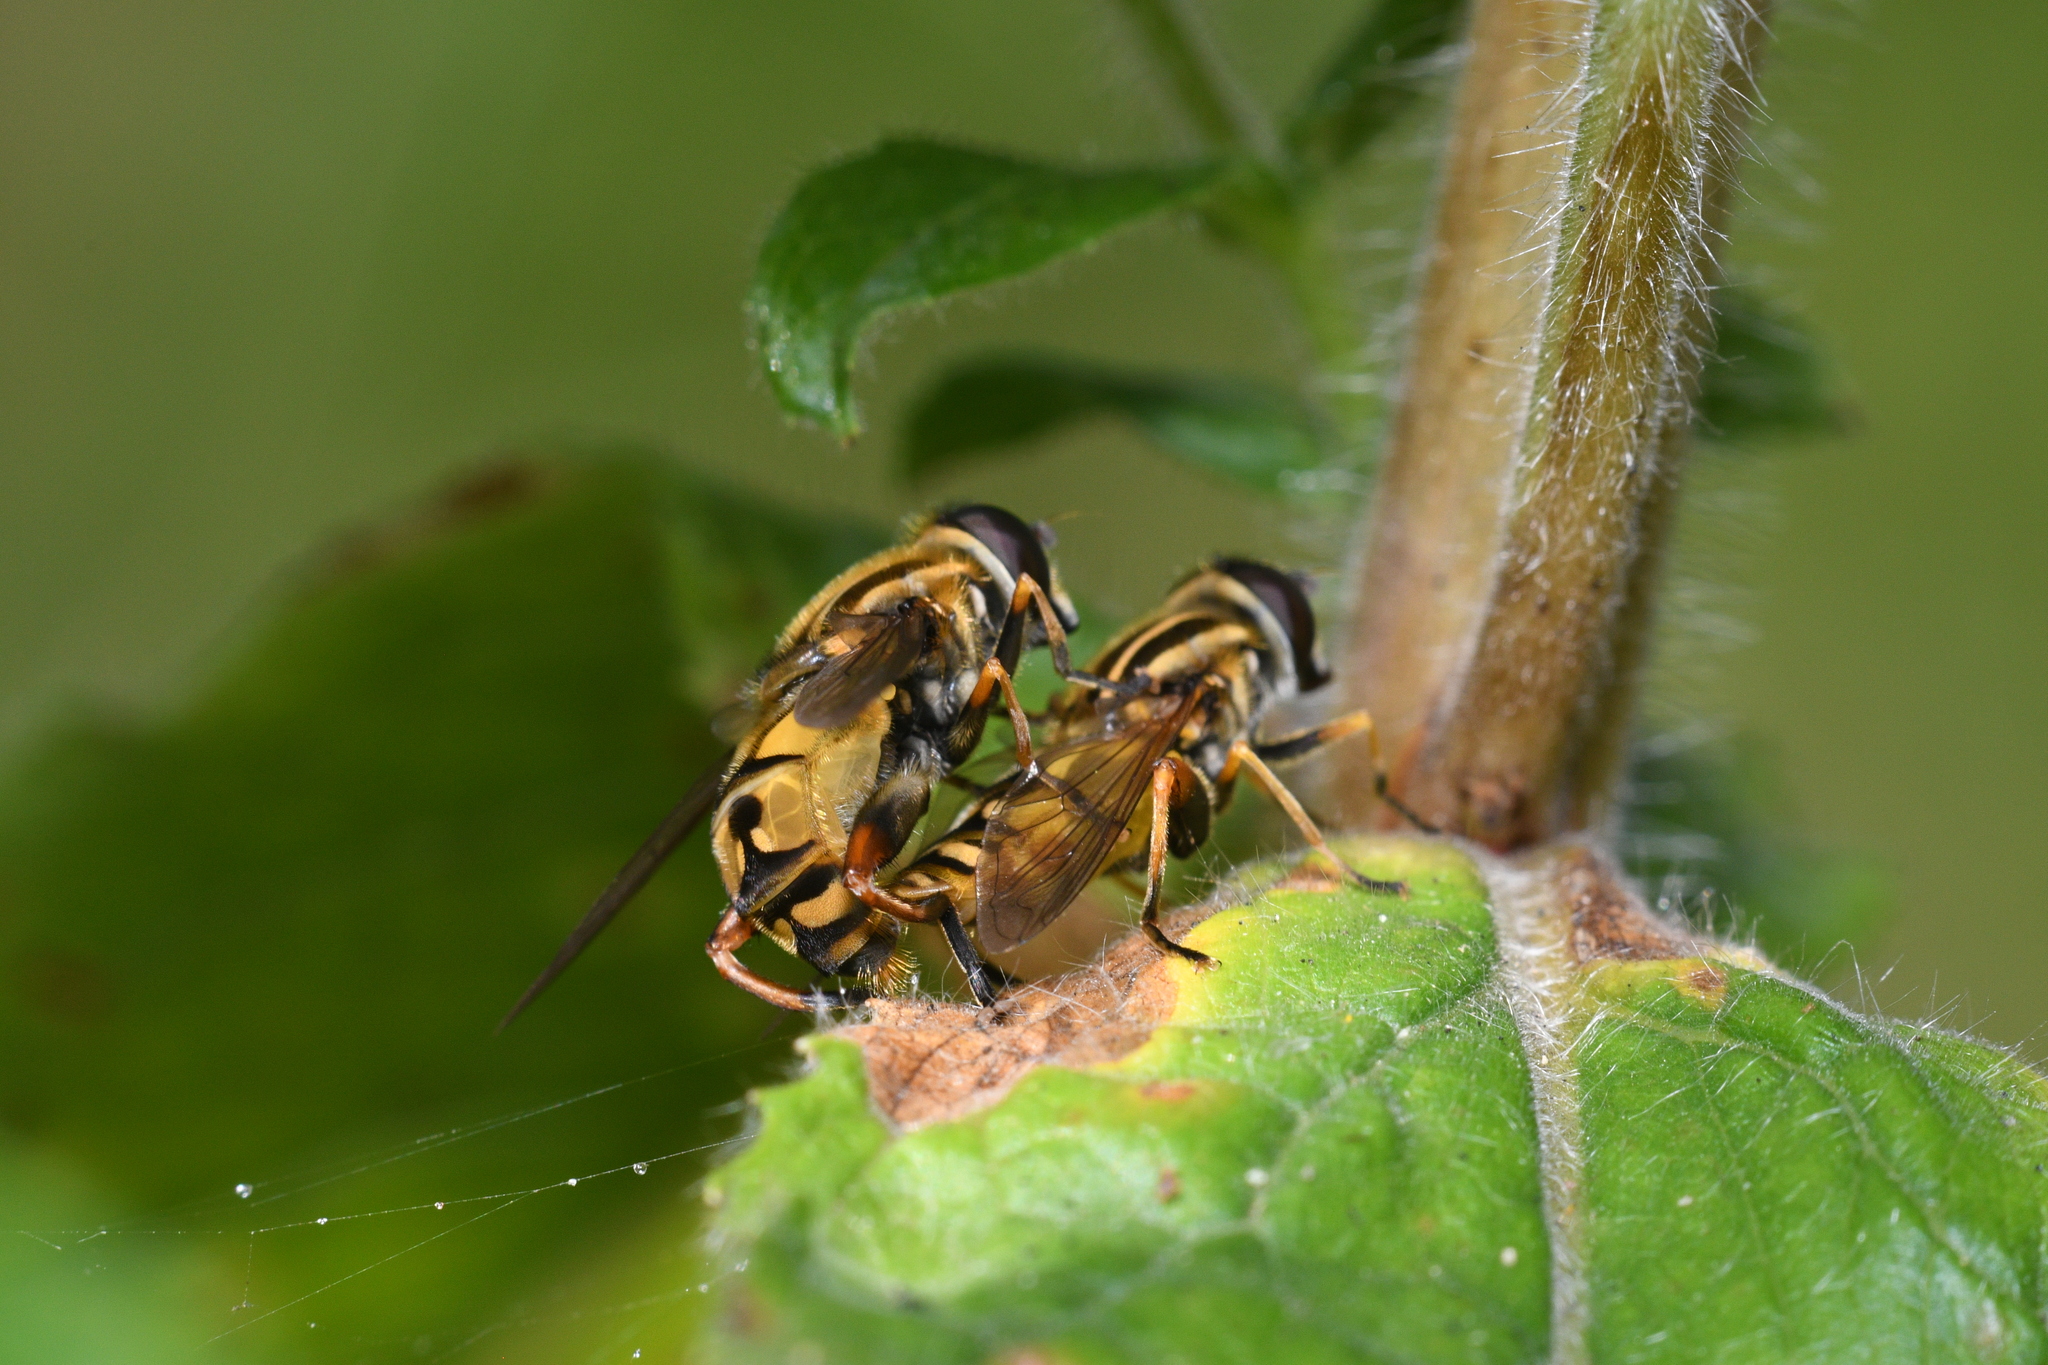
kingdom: Animalia
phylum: Arthropoda
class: Insecta
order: Diptera
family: Syrphidae
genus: Helophilus
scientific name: Helophilus pendulus
